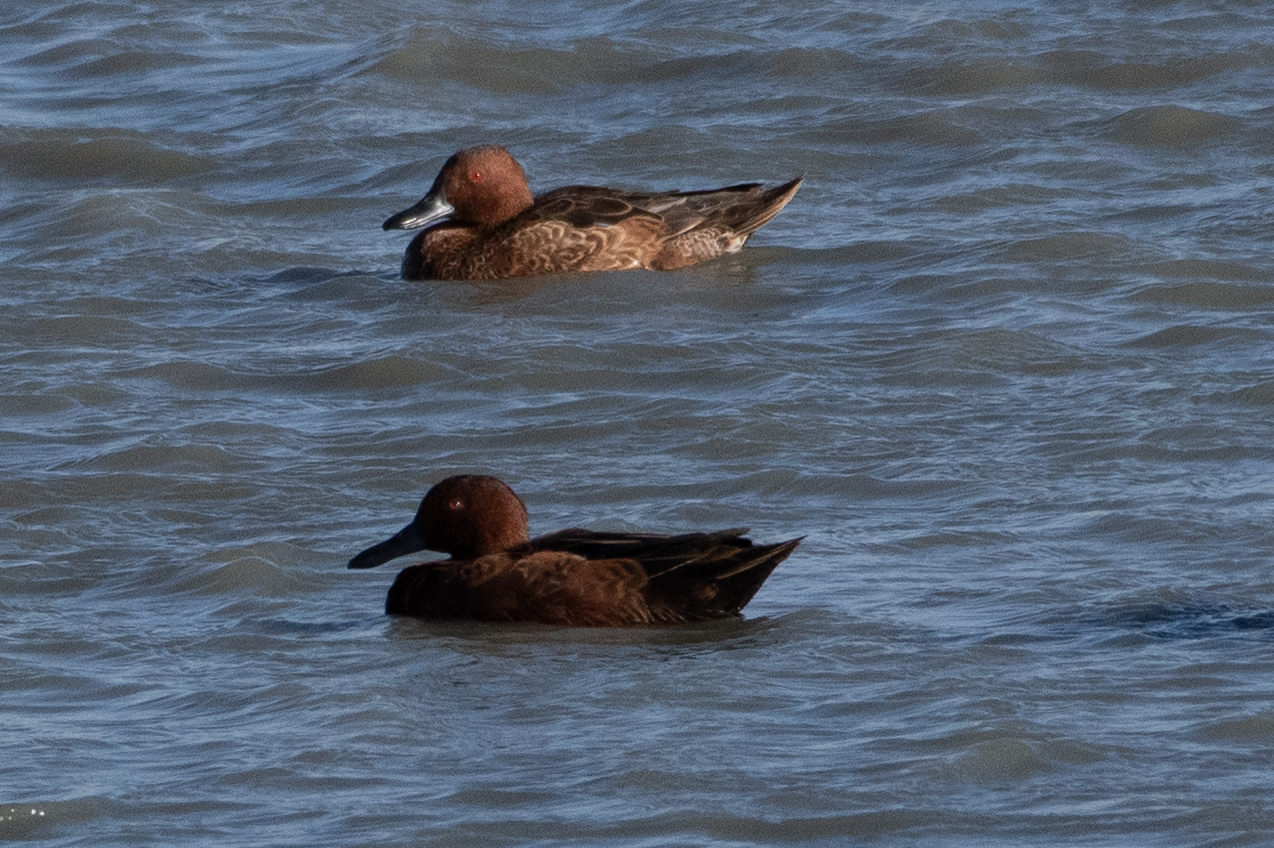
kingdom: Animalia
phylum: Chordata
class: Aves
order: Anseriformes
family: Anatidae
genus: Spatula
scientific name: Spatula cyanoptera
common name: Cinnamon teal
